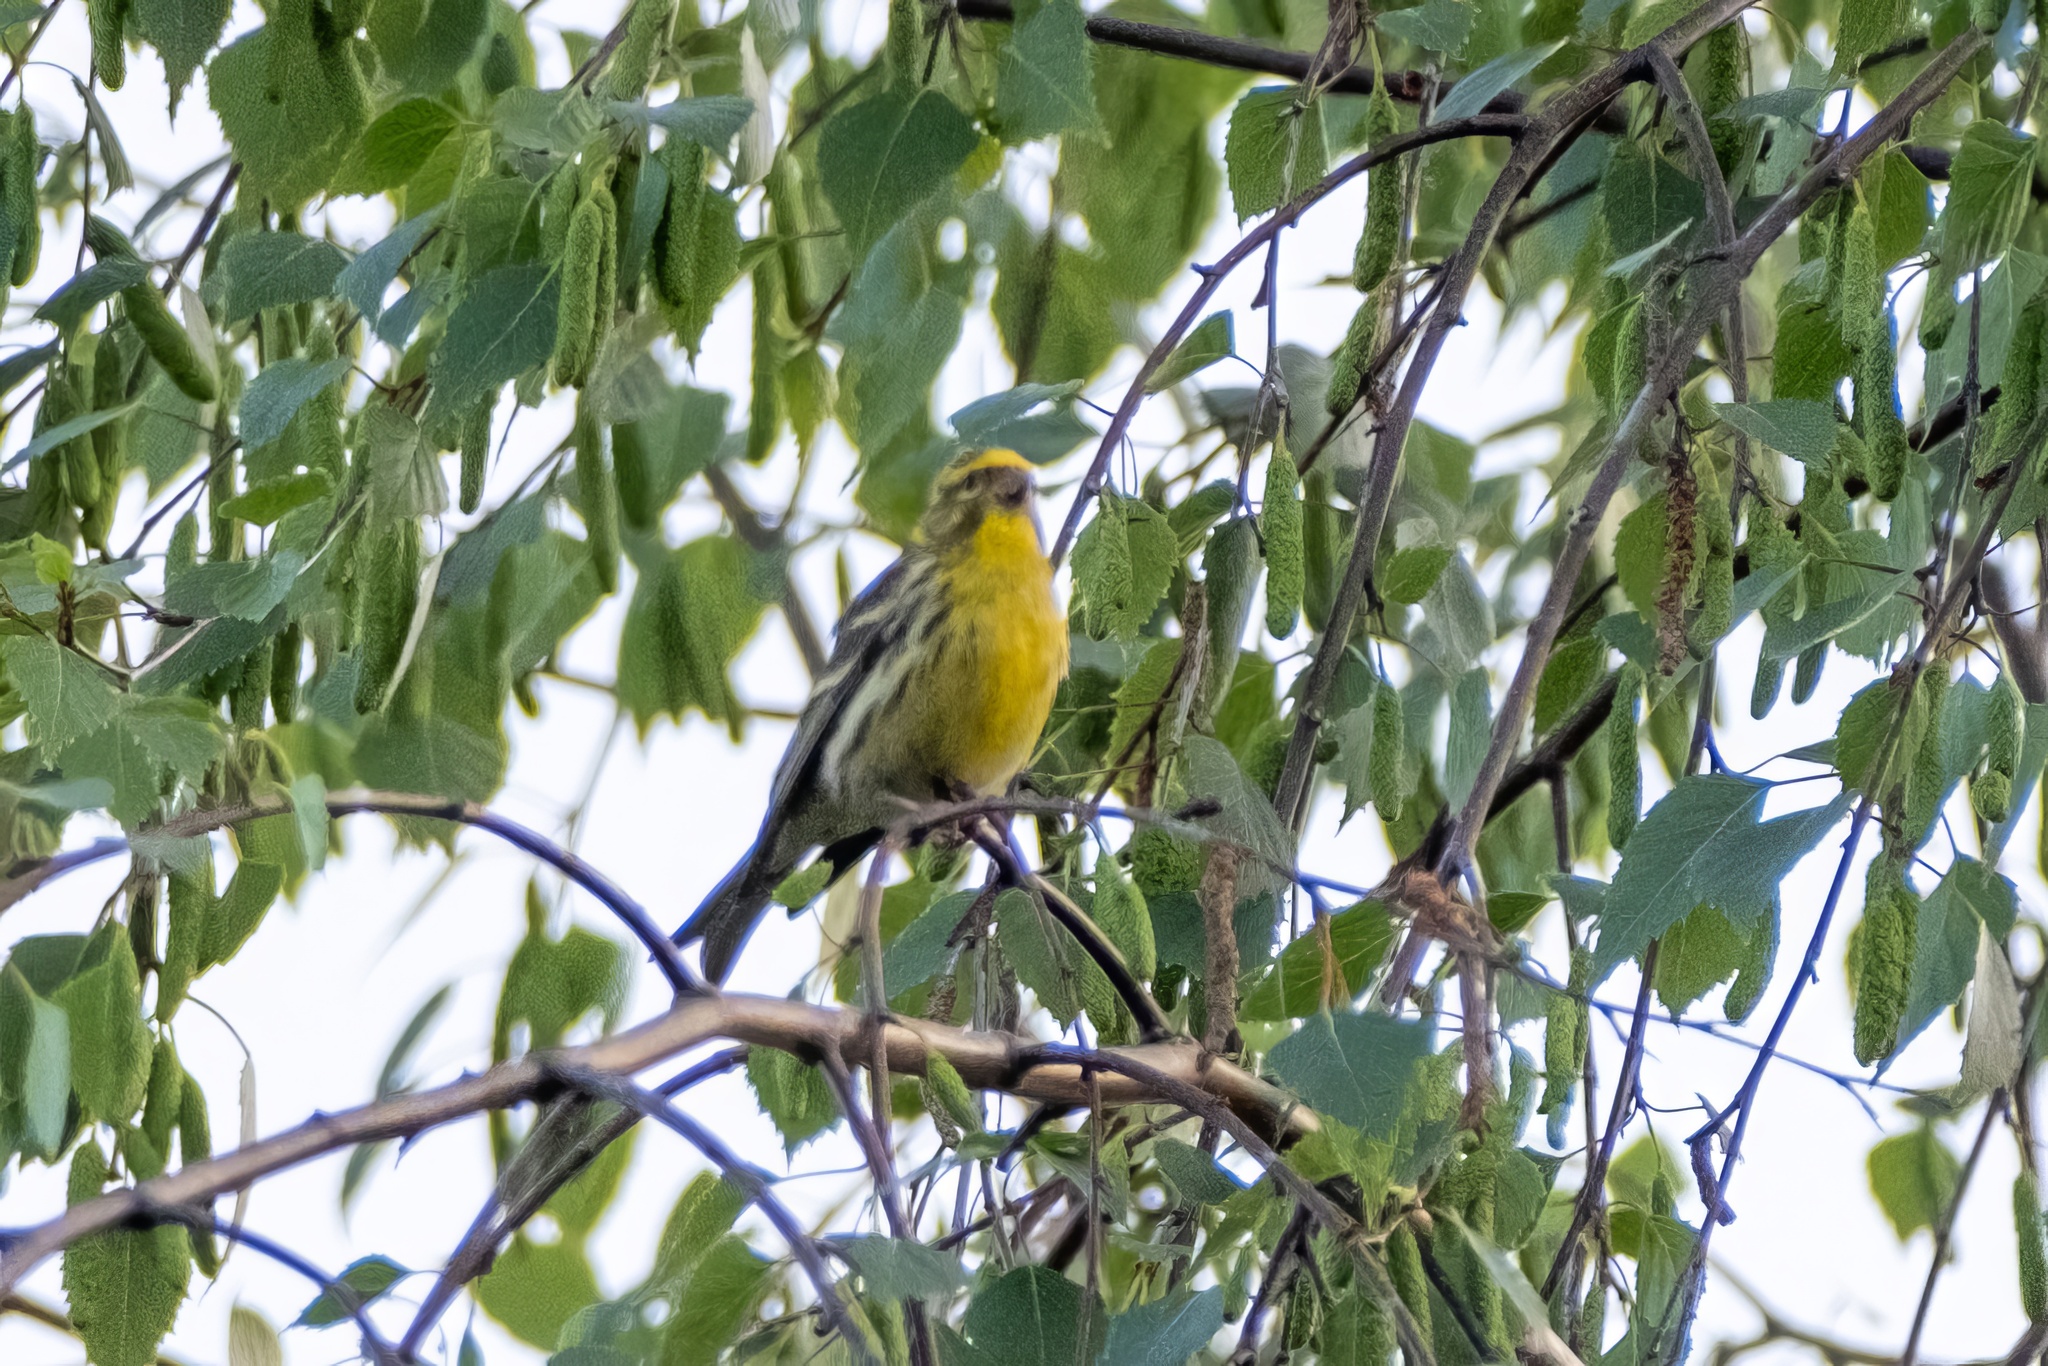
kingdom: Animalia
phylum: Chordata
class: Aves
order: Passeriformes
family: Fringillidae
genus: Serinus
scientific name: Serinus serinus
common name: European serin
